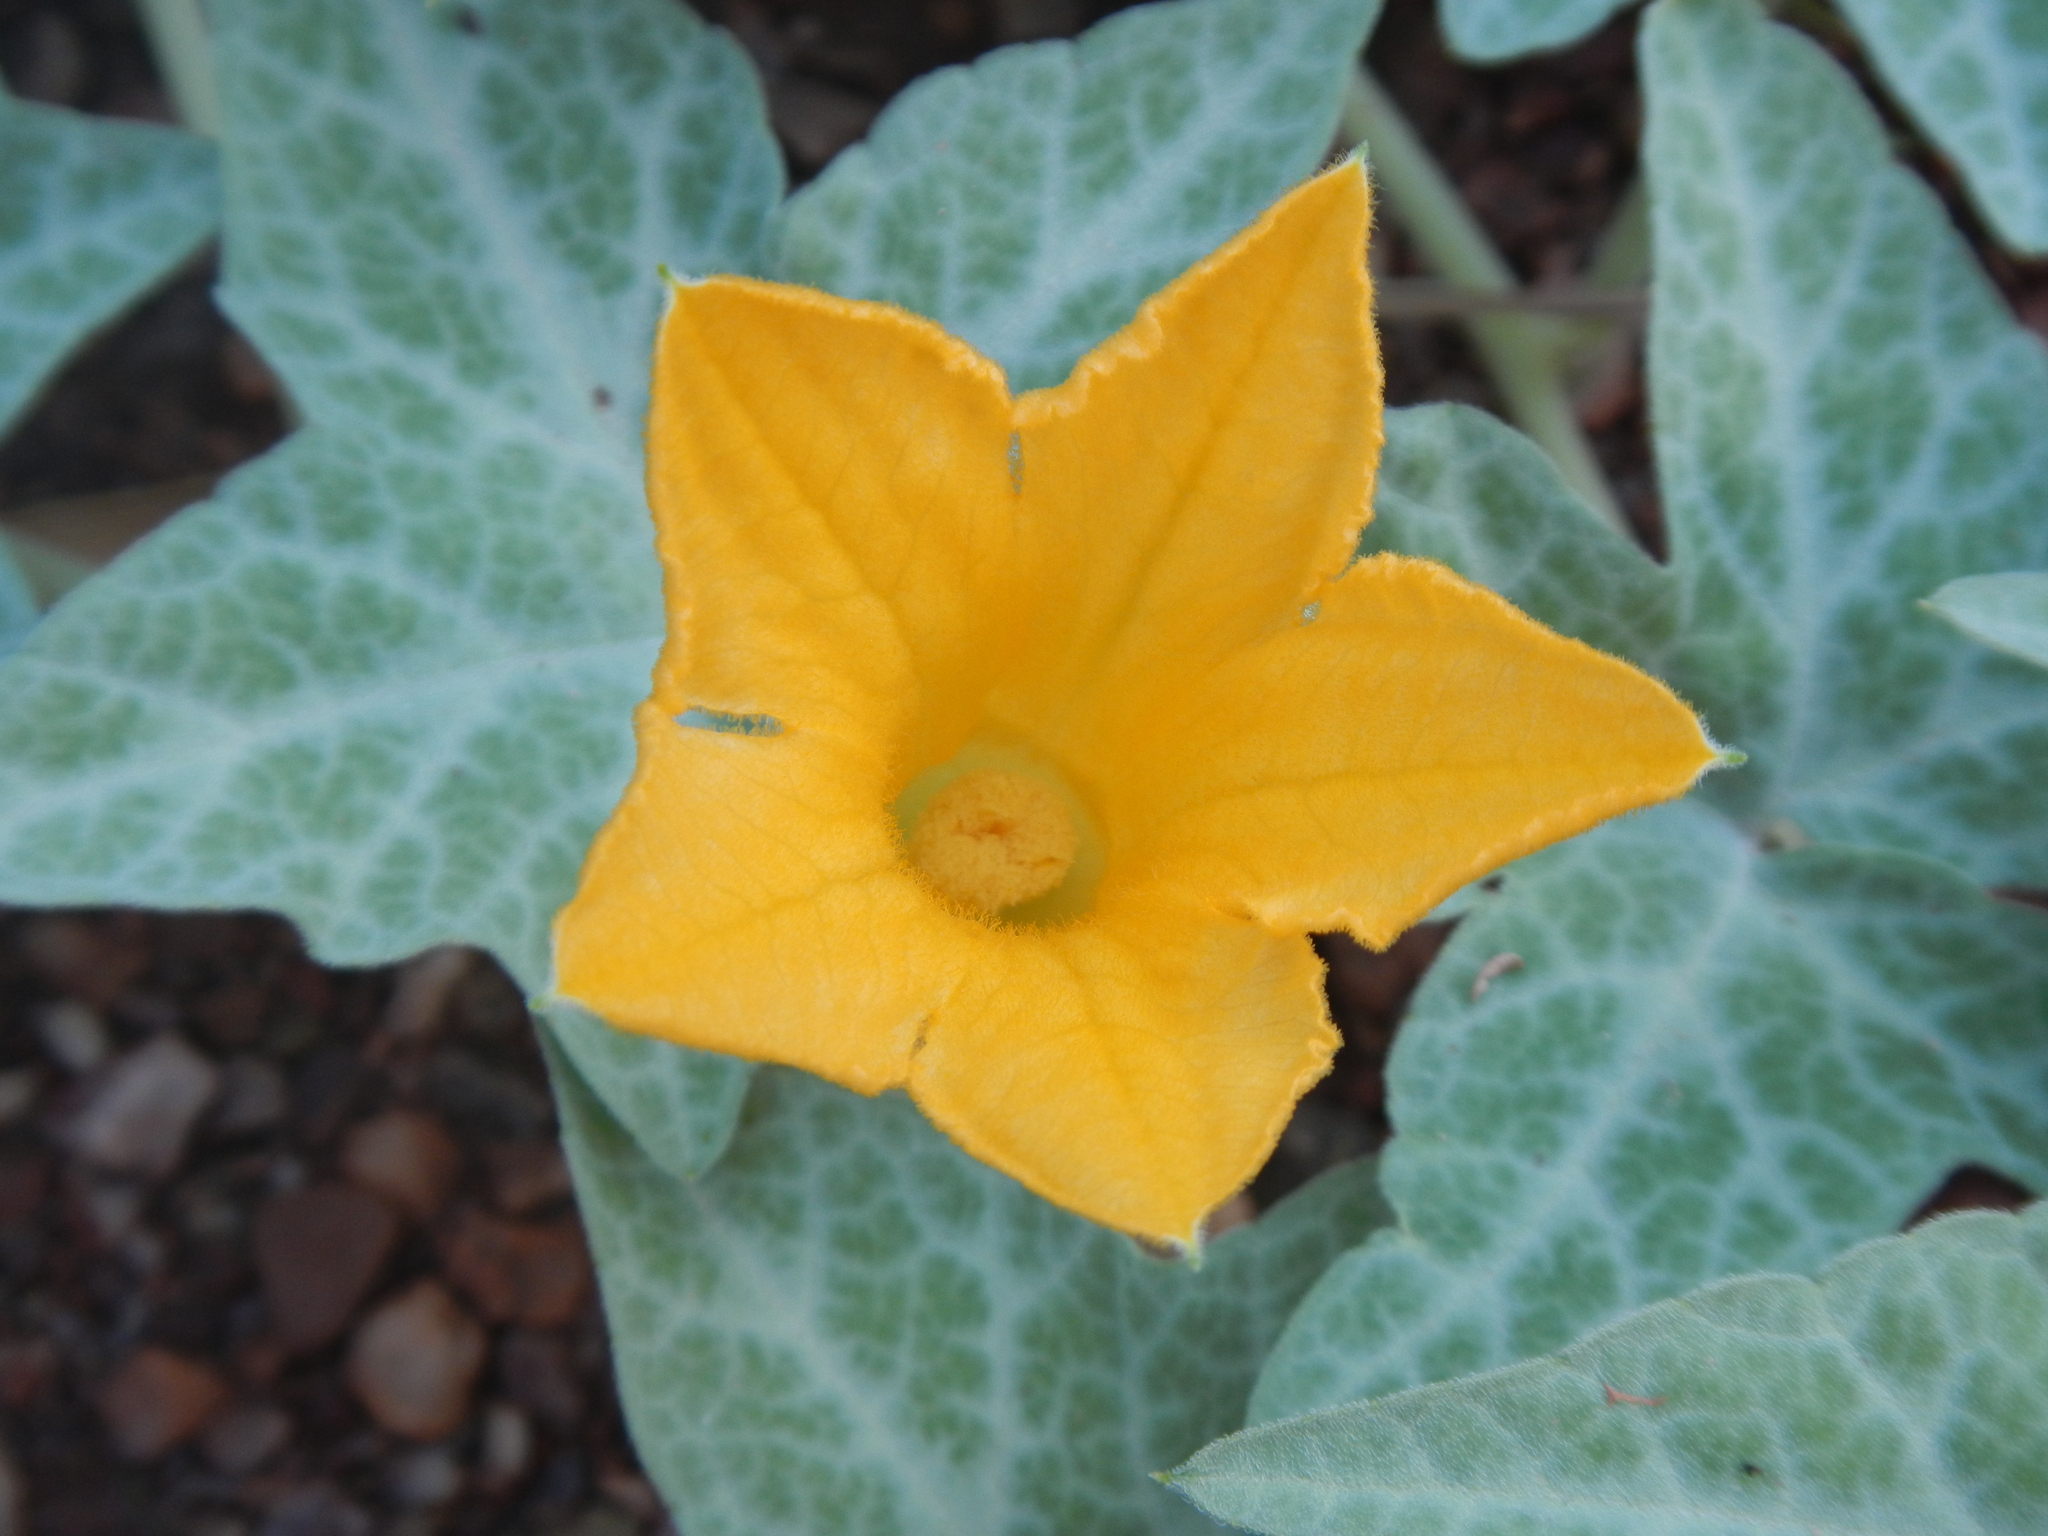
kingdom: Plantae
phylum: Tracheophyta
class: Magnoliopsida
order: Cucurbitales
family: Cucurbitaceae
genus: Cucurbita
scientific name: Cucurbita palmata
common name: Coyote-melon
